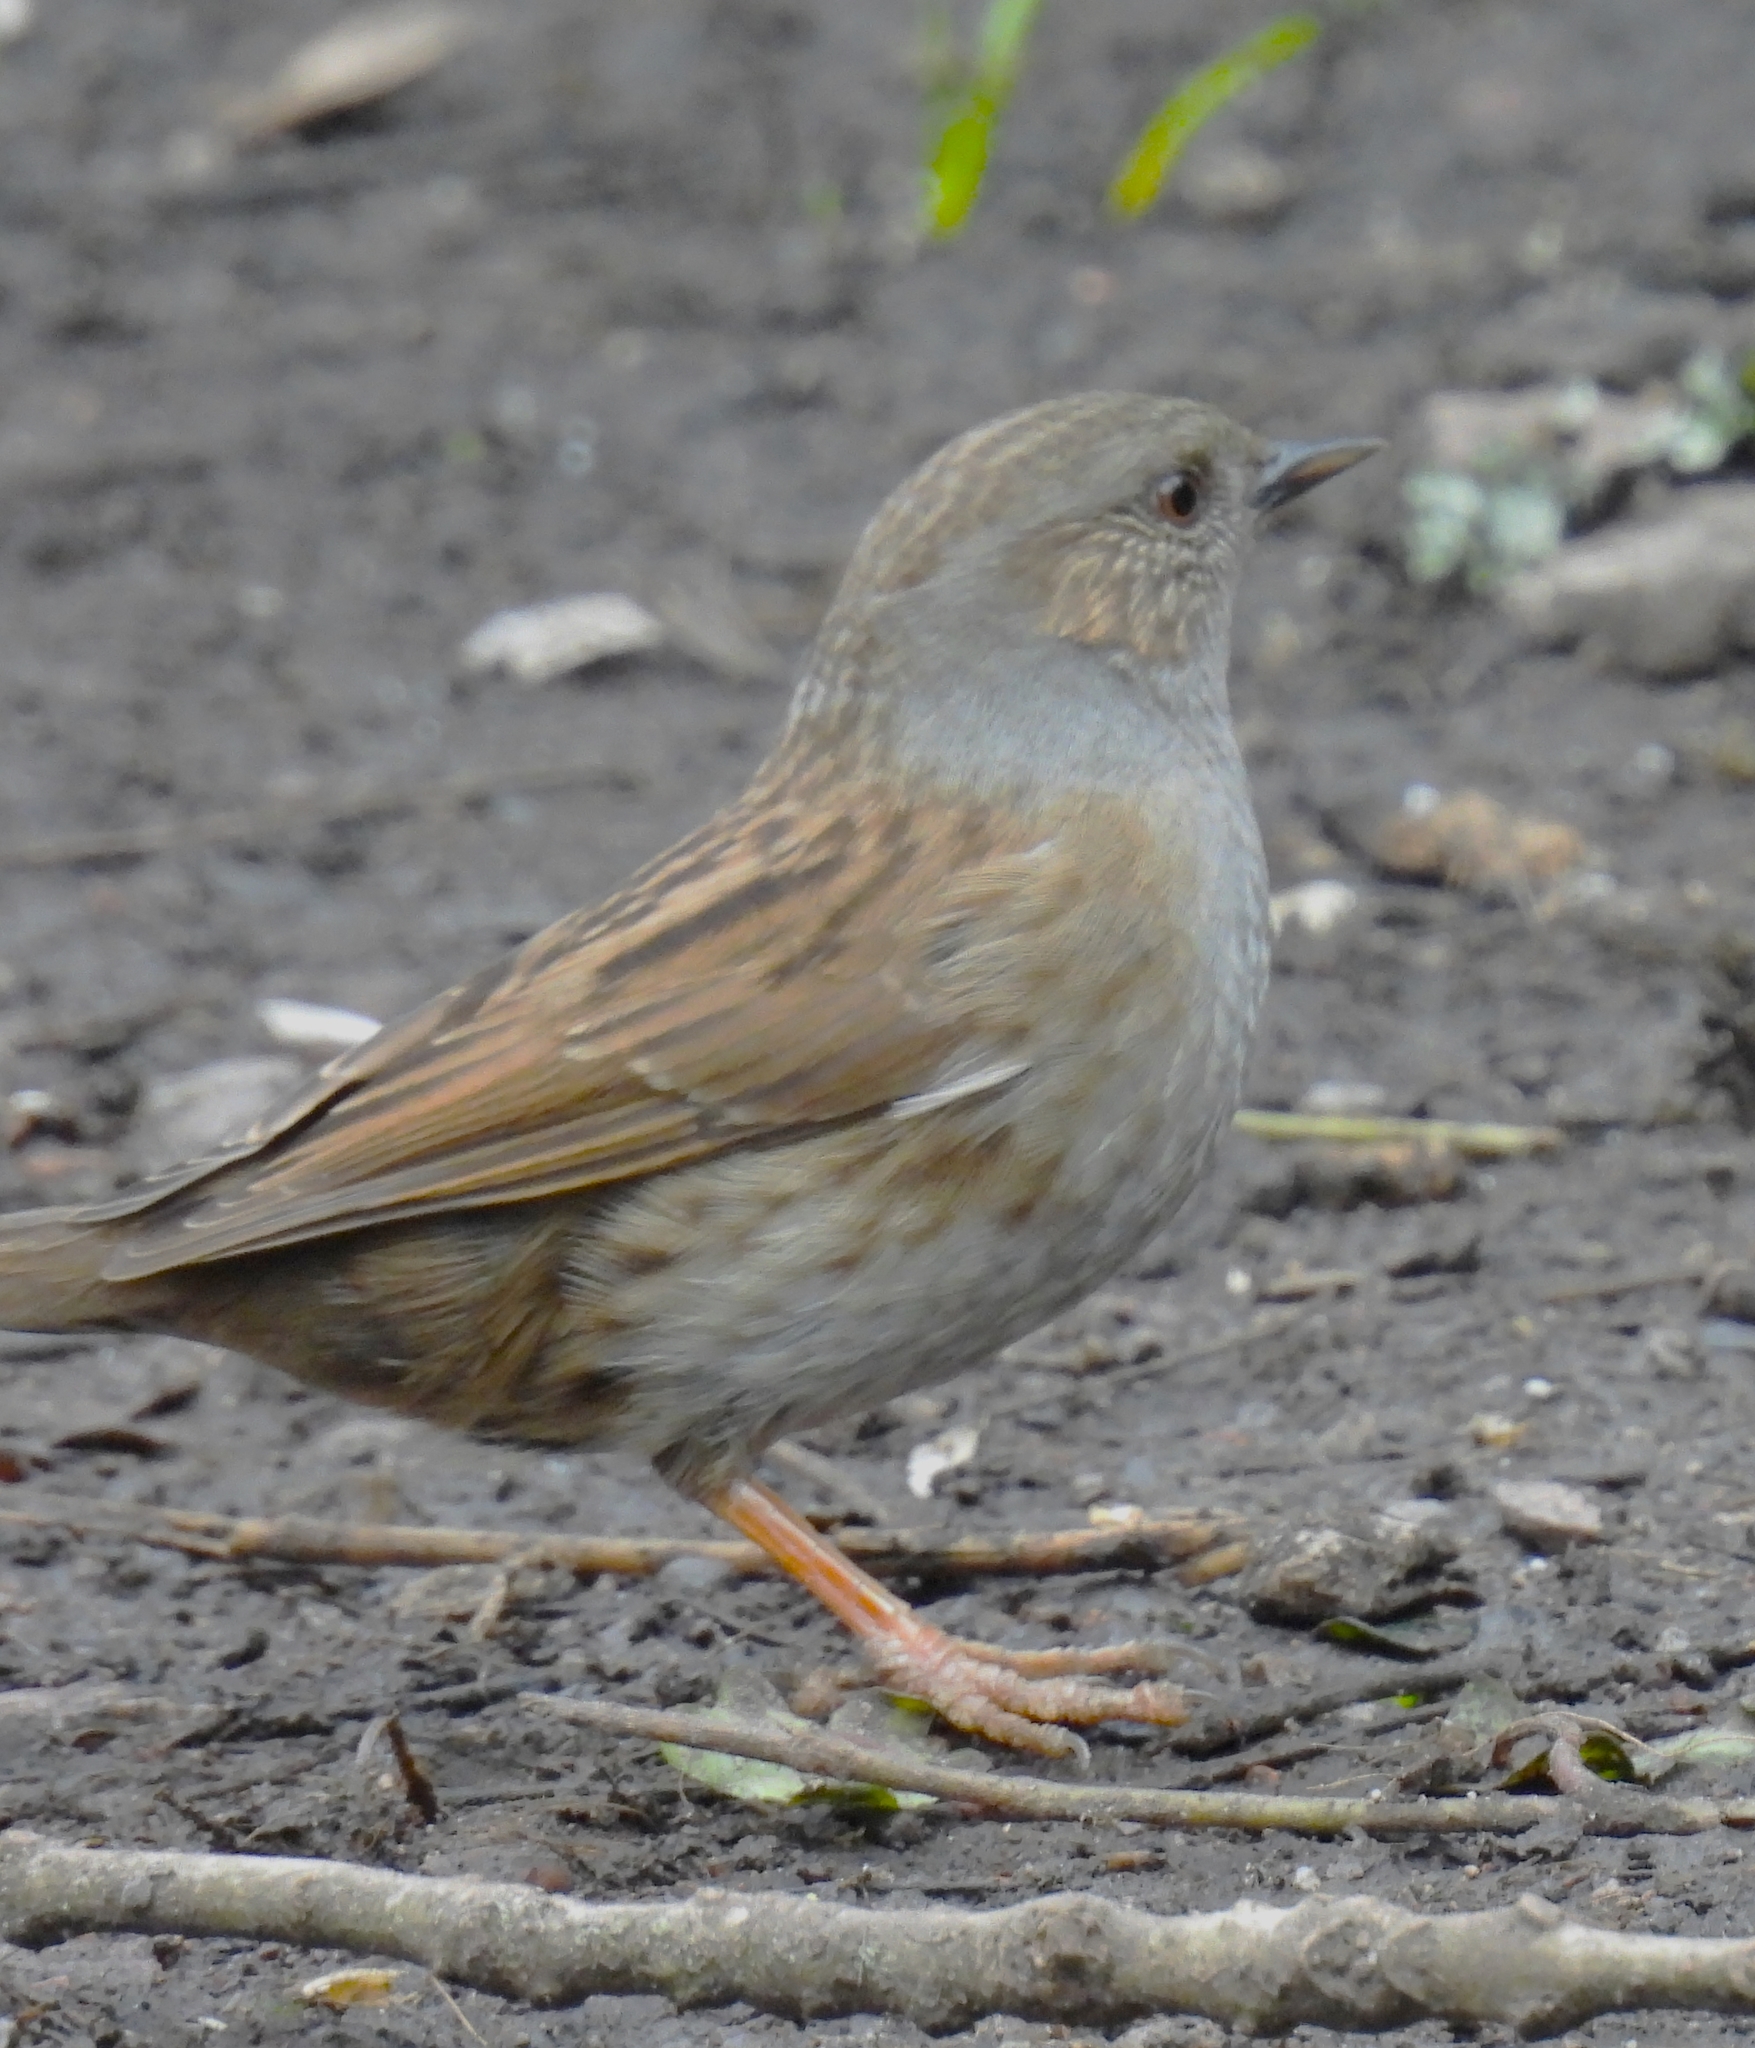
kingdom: Animalia
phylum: Chordata
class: Aves
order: Passeriformes
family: Prunellidae
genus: Prunella
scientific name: Prunella modularis
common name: Dunnock
